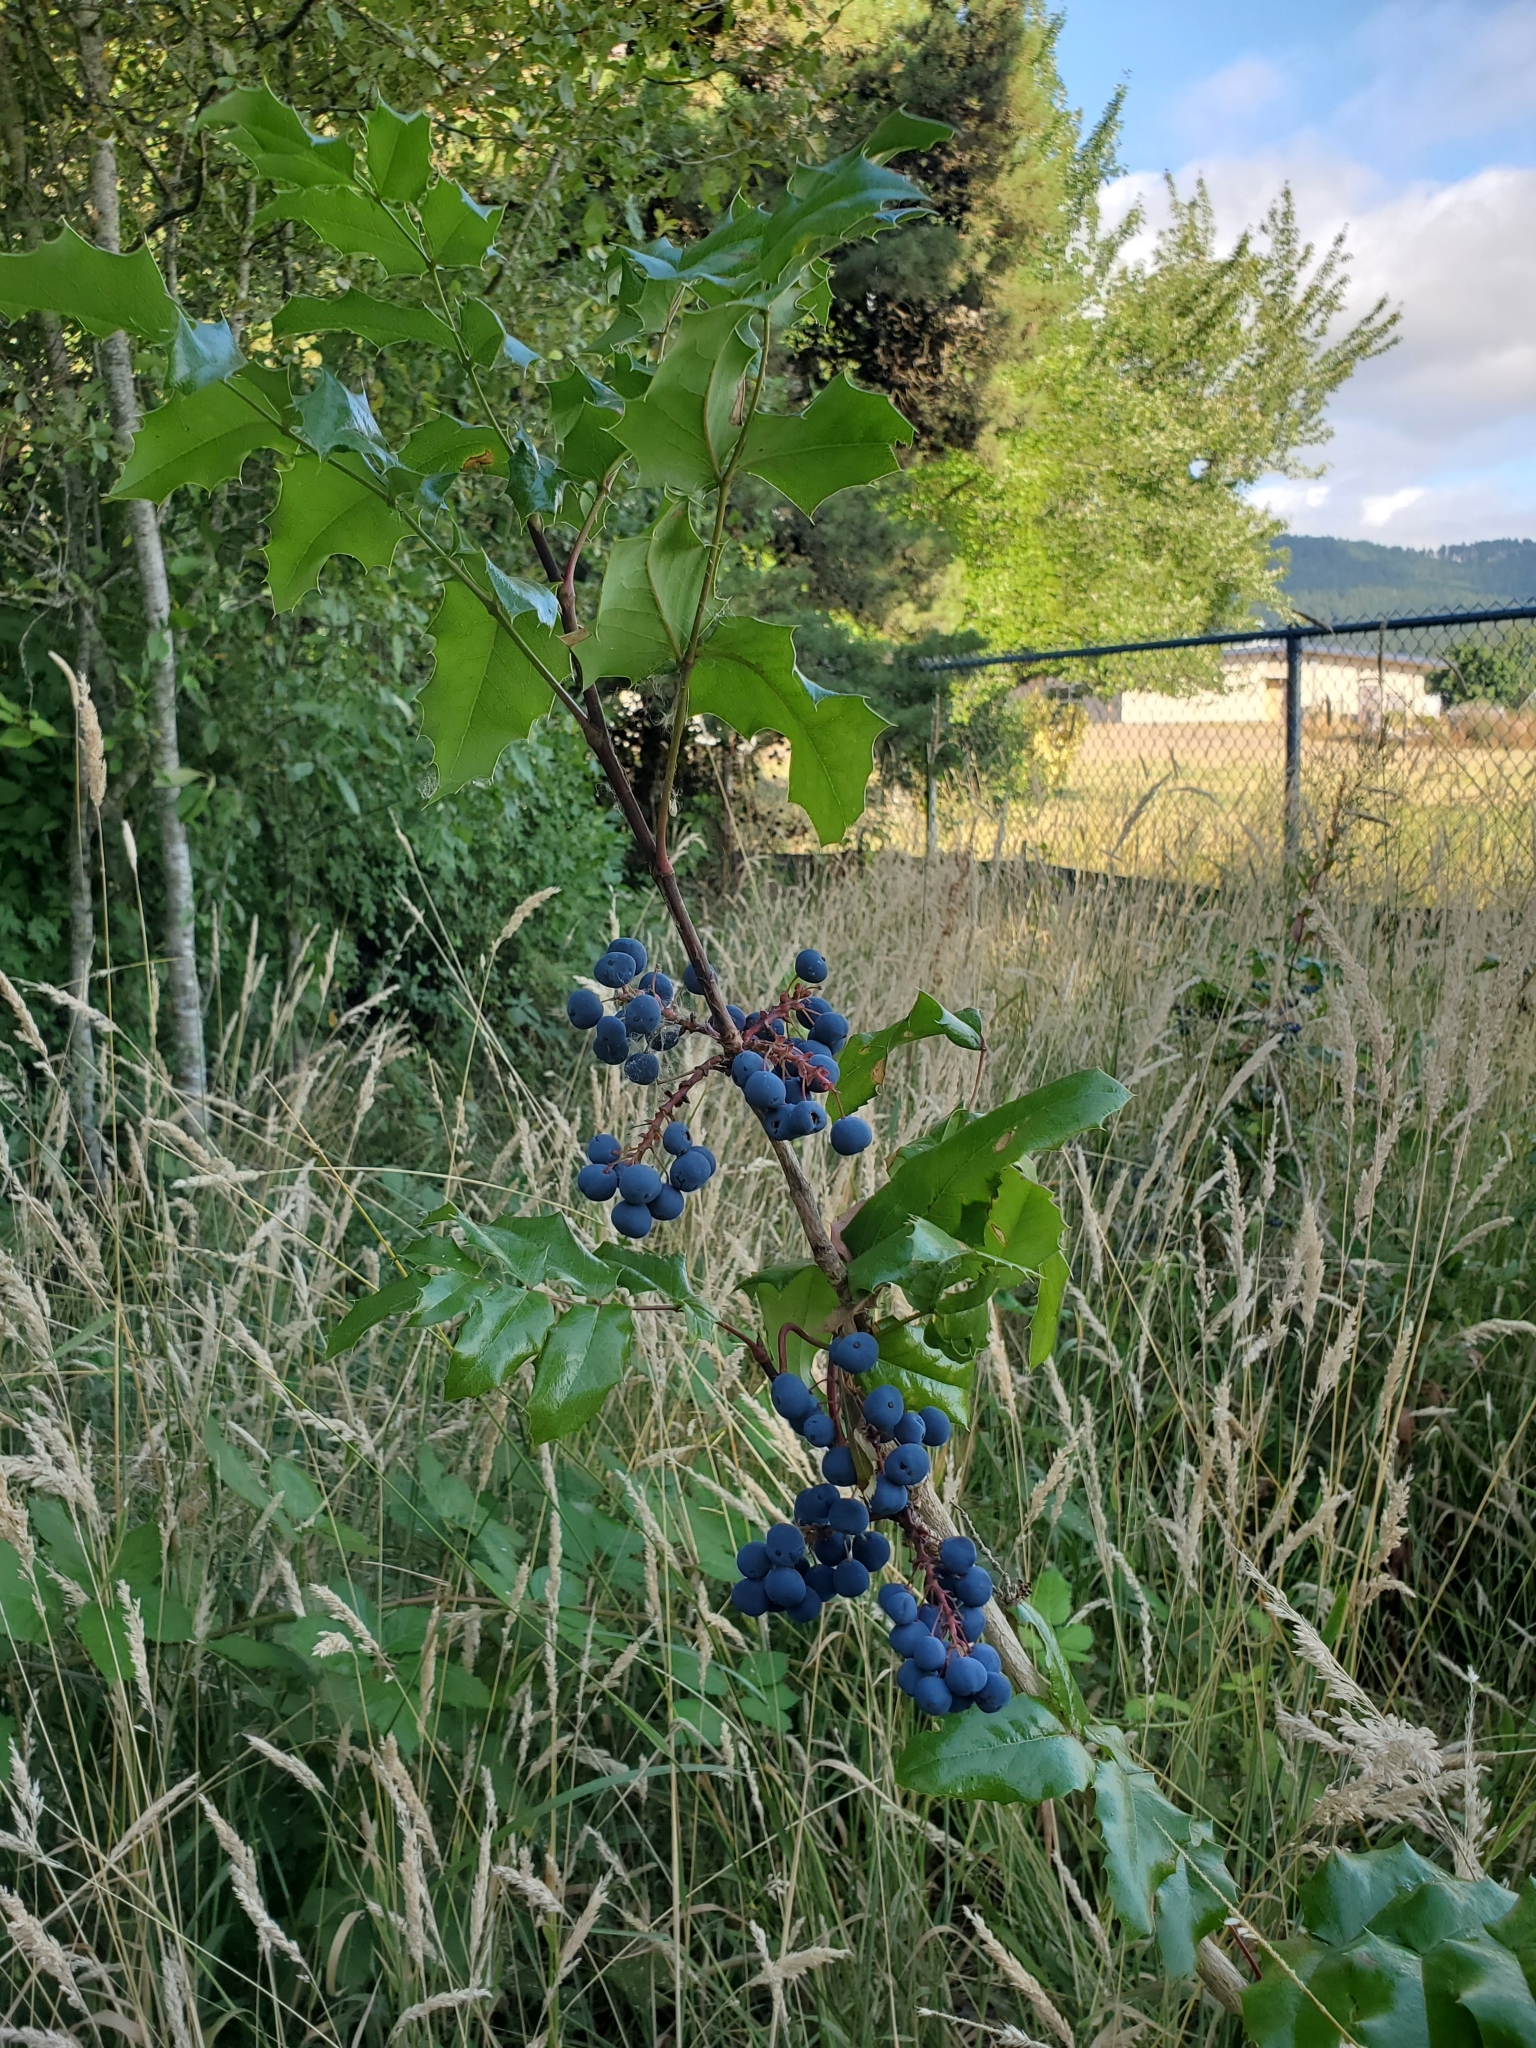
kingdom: Plantae
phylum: Tracheophyta
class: Magnoliopsida
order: Ranunculales
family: Berberidaceae
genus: Mahonia
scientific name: Mahonia aquifolium
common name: Oregon-grape
